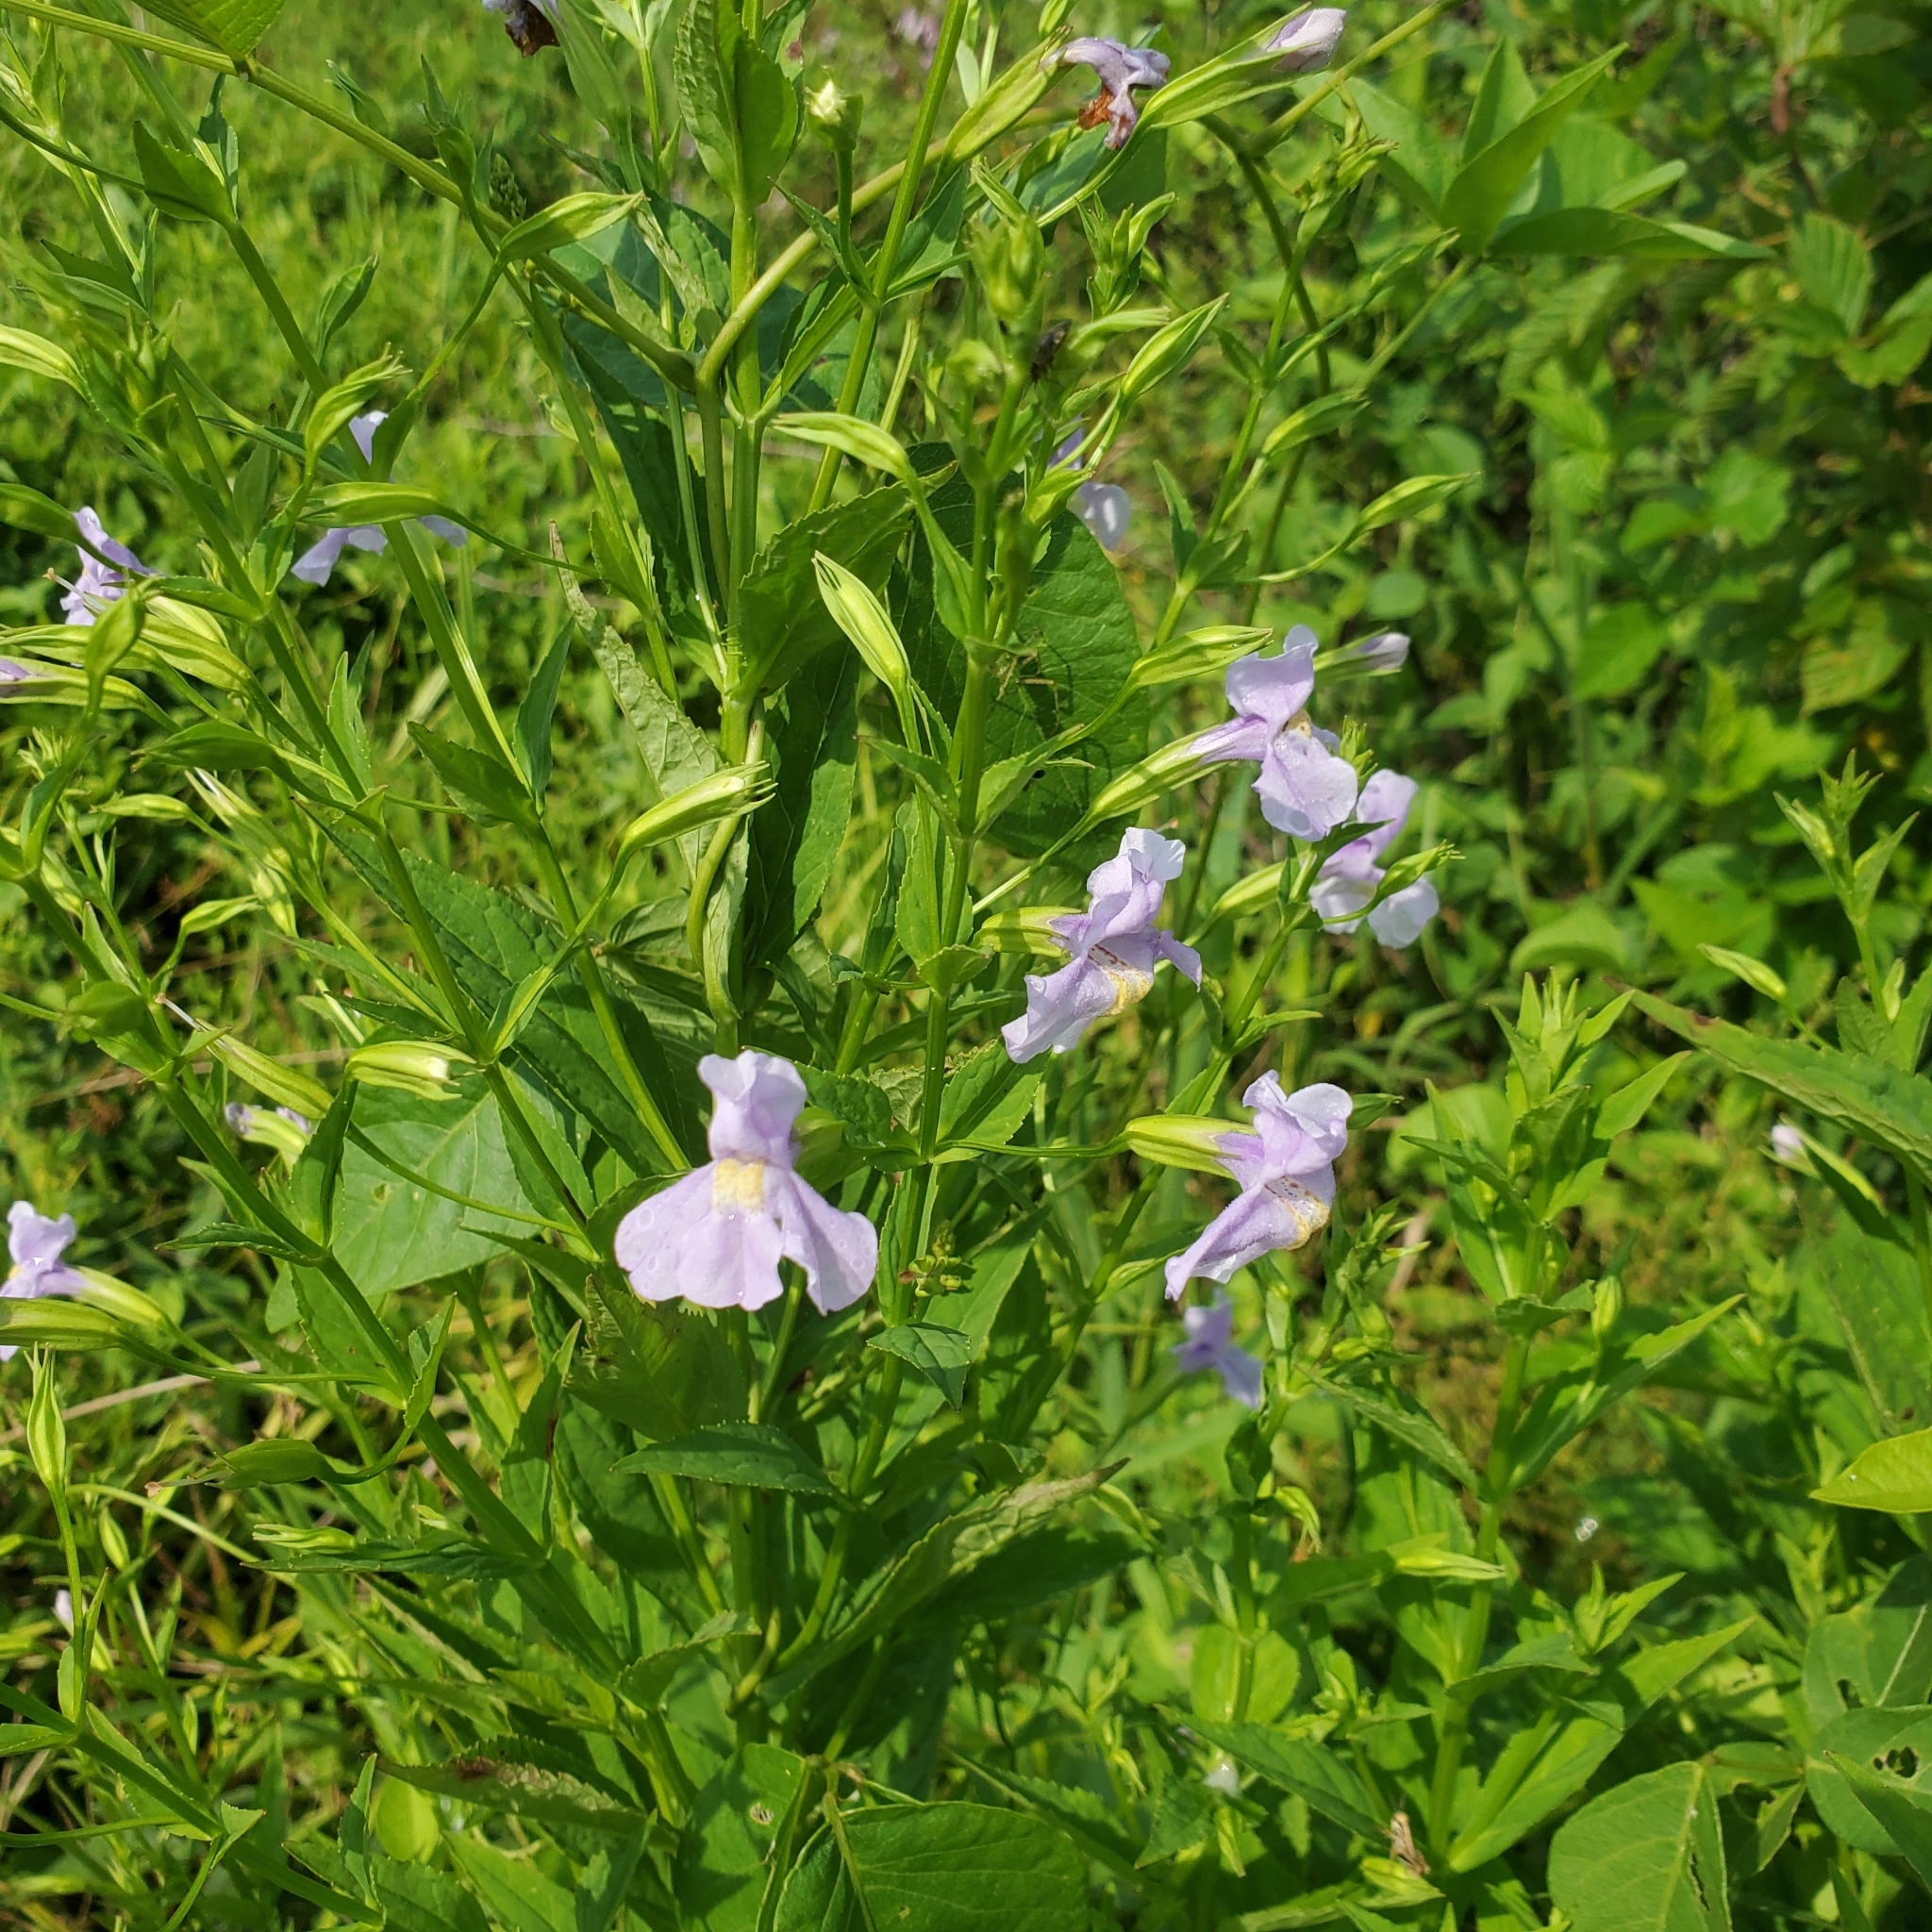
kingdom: Plantae
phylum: Tracheophyta
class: Magnoliopsida
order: Lamiales
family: Phrymaceae
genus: Mimulus
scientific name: Mimulus ringens
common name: Allegheny monkeyflower
